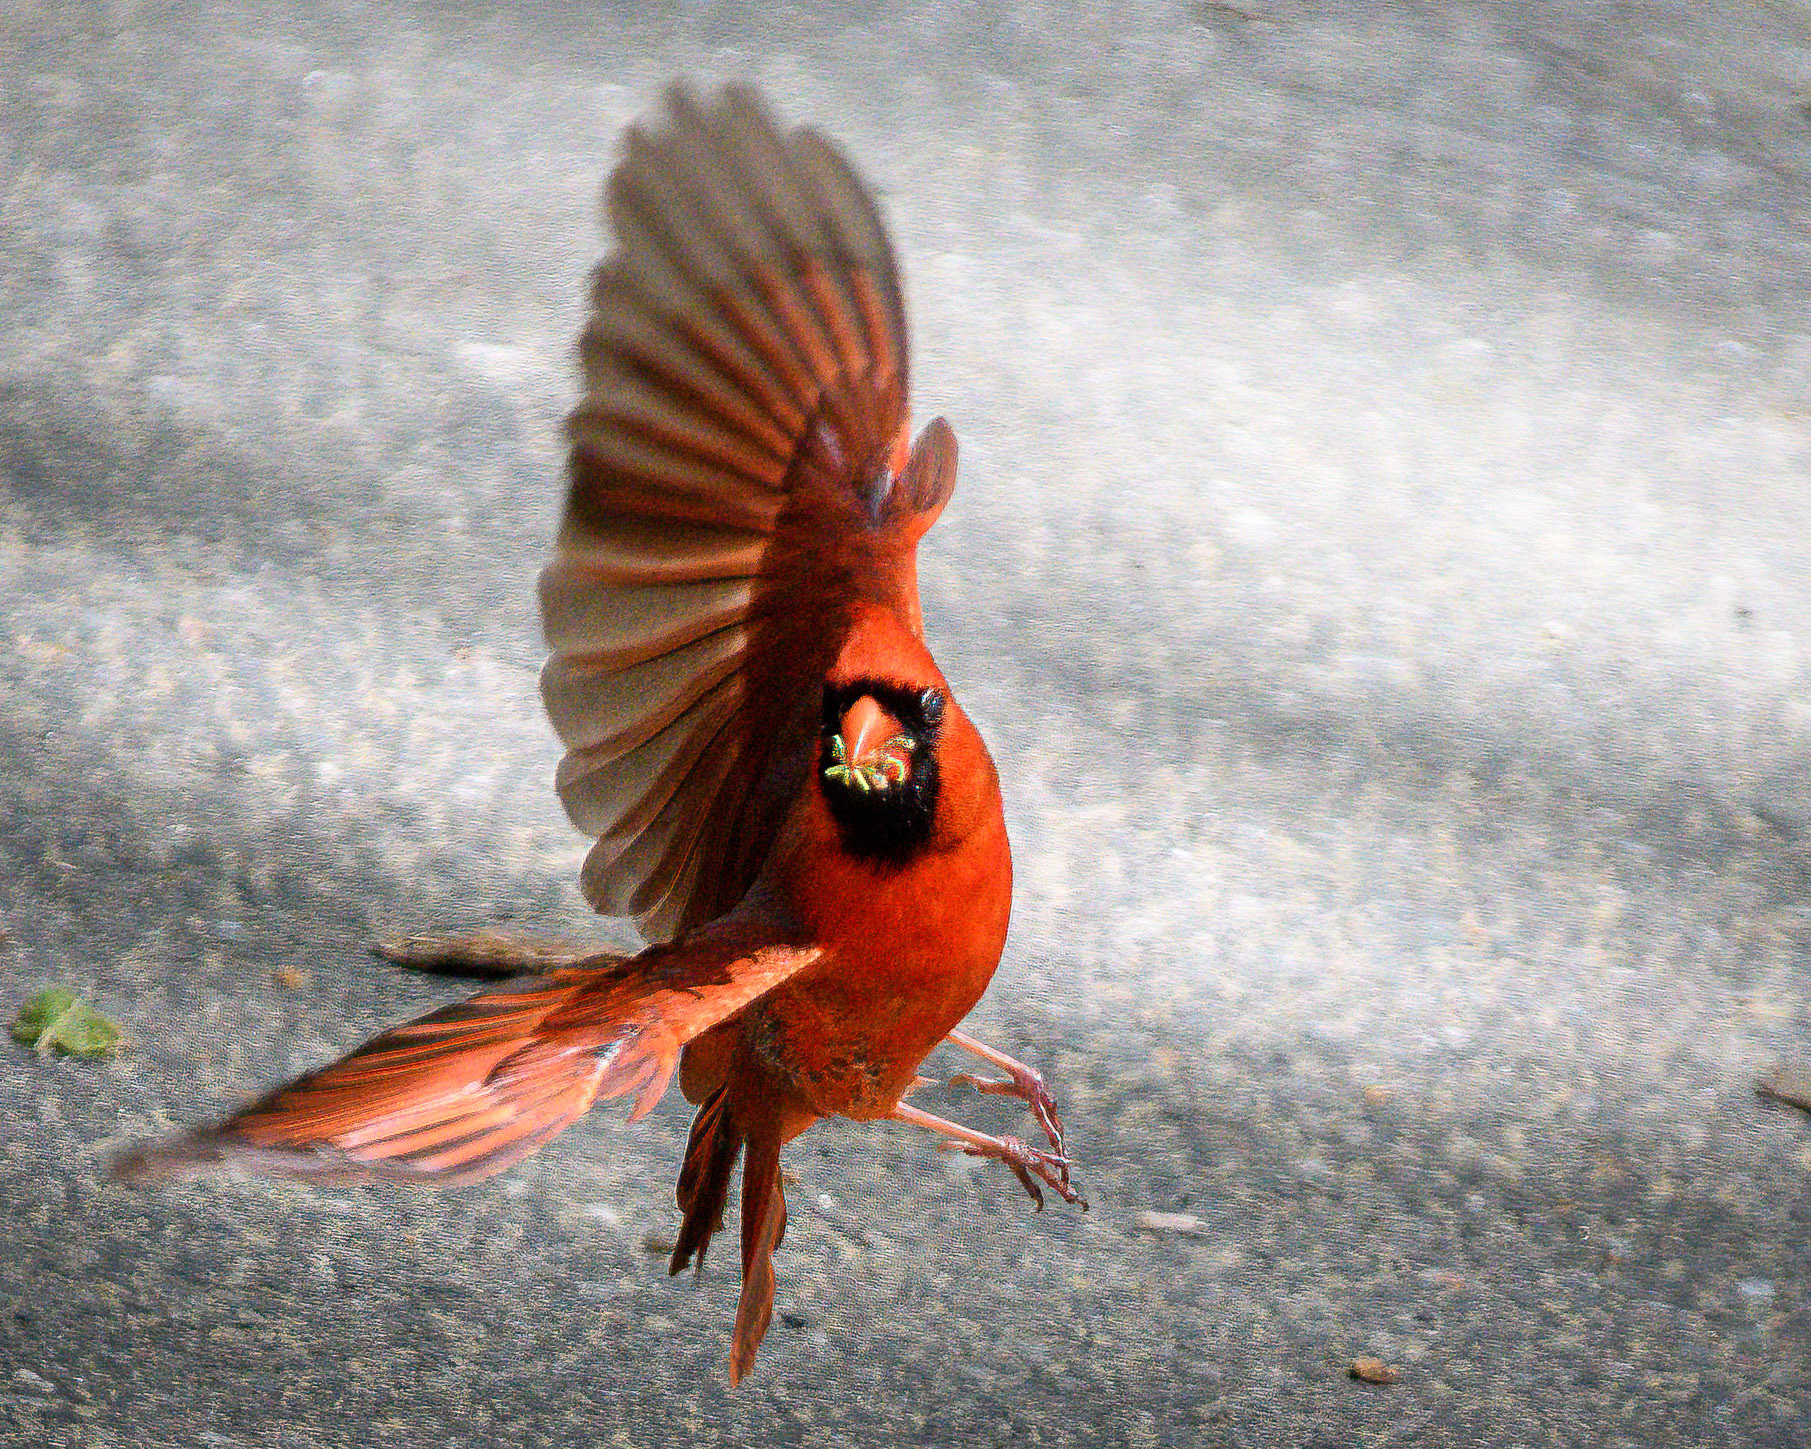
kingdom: Animalia
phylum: Chordata
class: Aves
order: Passeriformes
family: Cardinalidae
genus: Cardinalis
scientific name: Cardinalis cardinalis
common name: Northern cardinal
